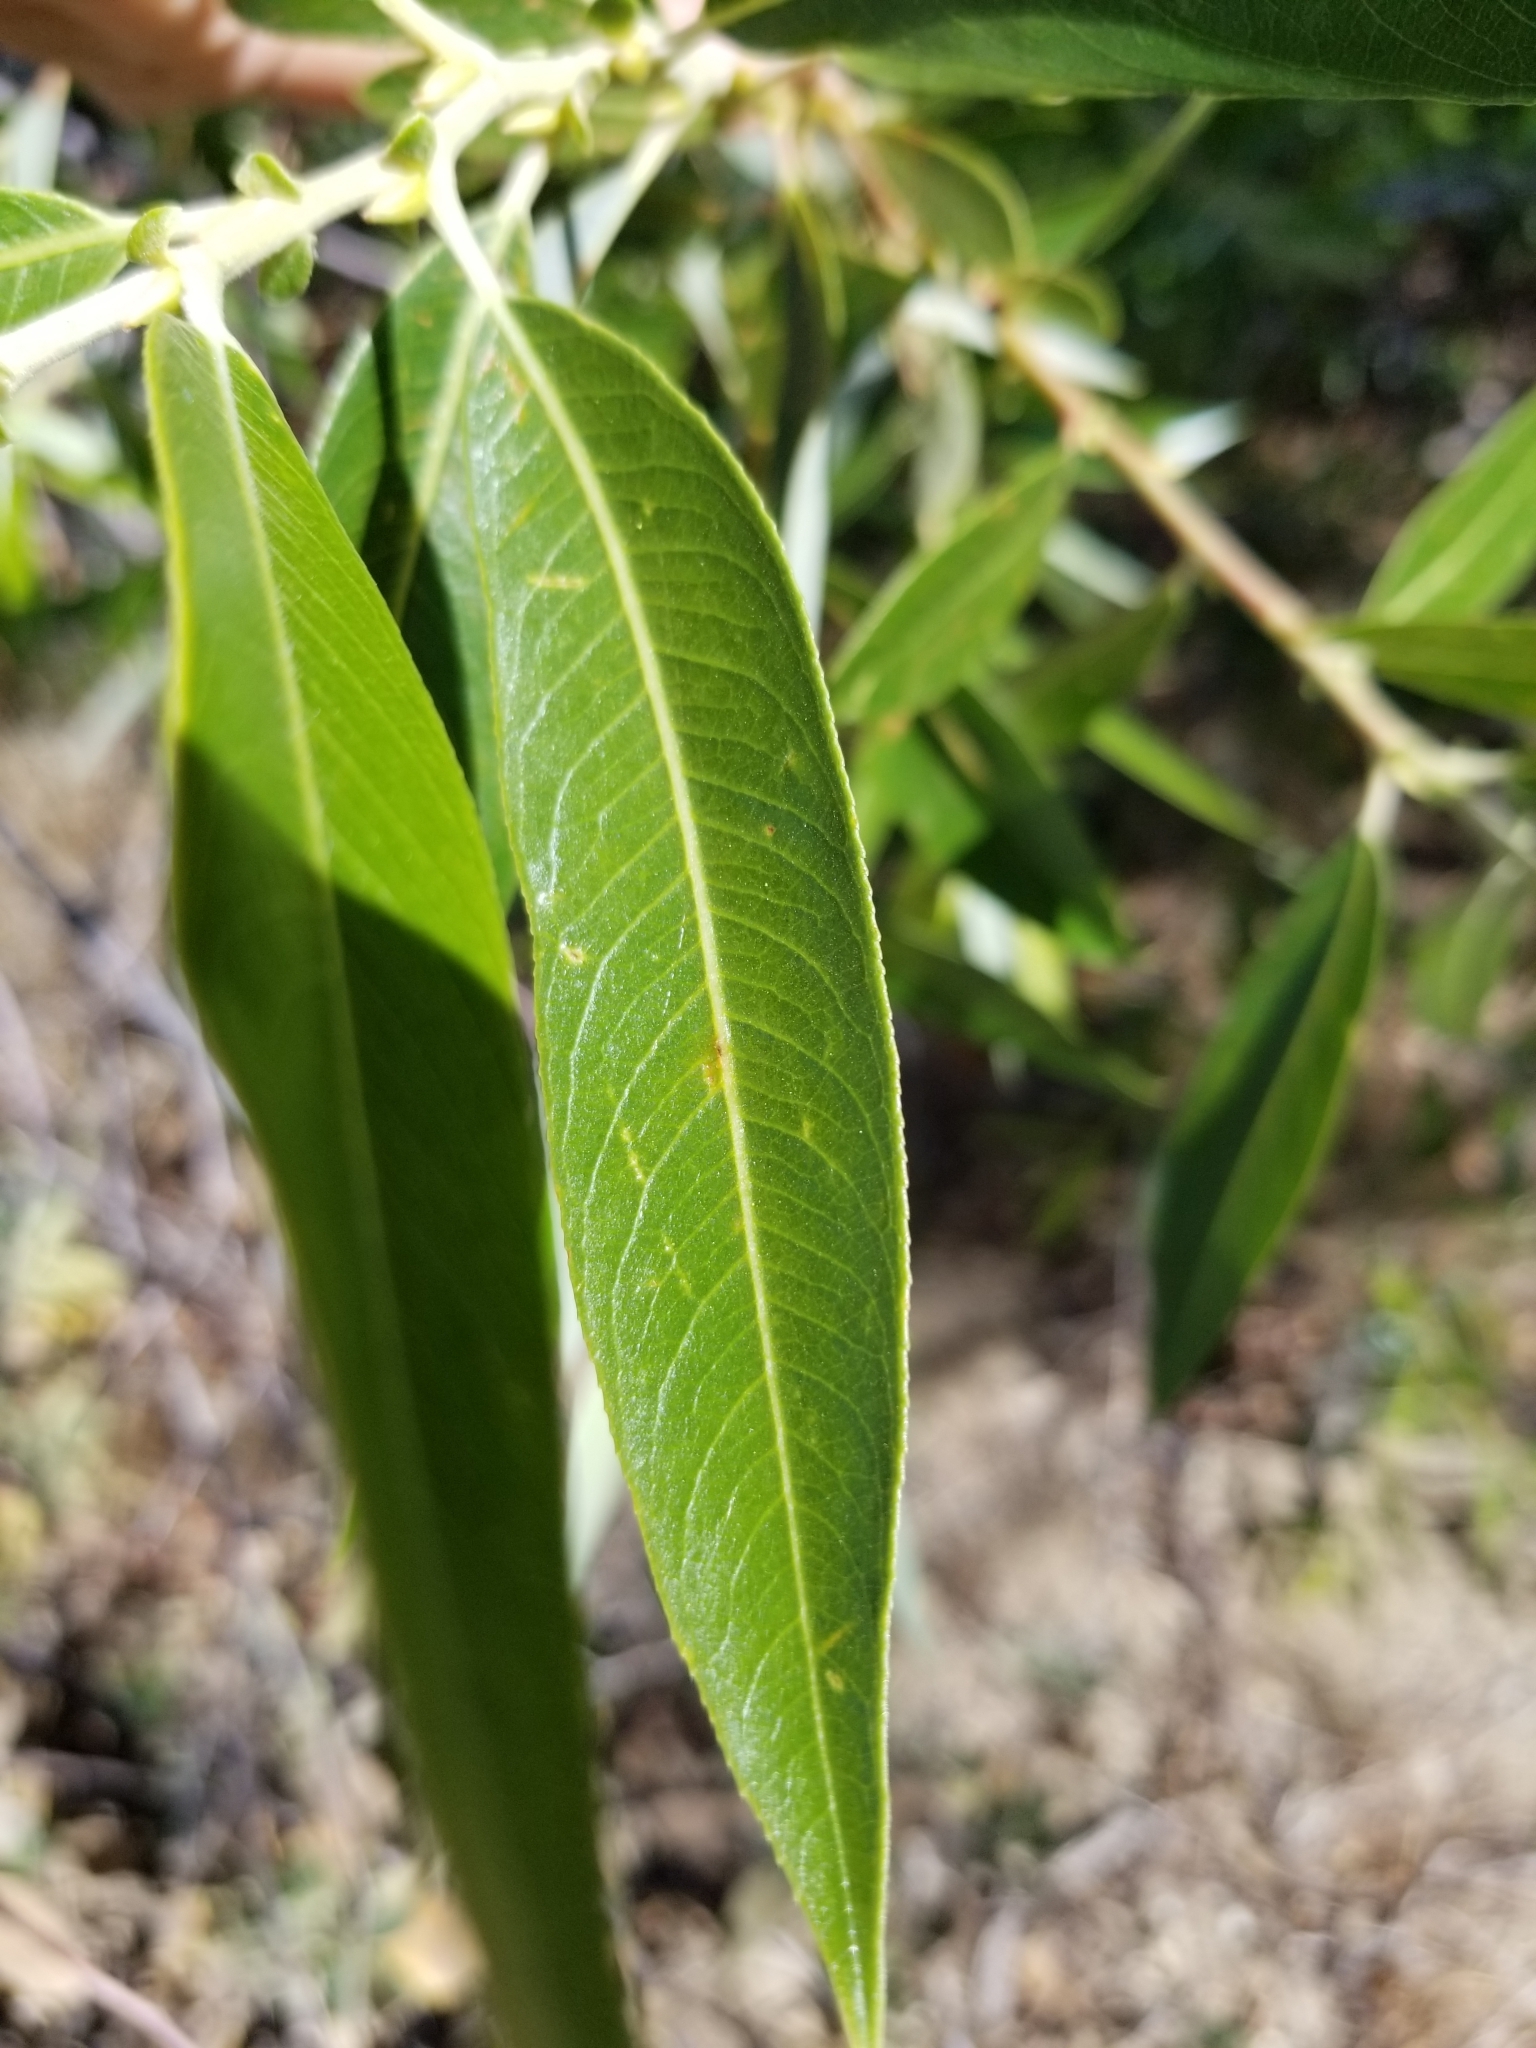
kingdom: Plantae
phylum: Tracheophyta
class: Magnoliopsida
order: Malpighiales
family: Salicaceae
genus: Salix
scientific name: Salix lasiolepis
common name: Arroyo willow
